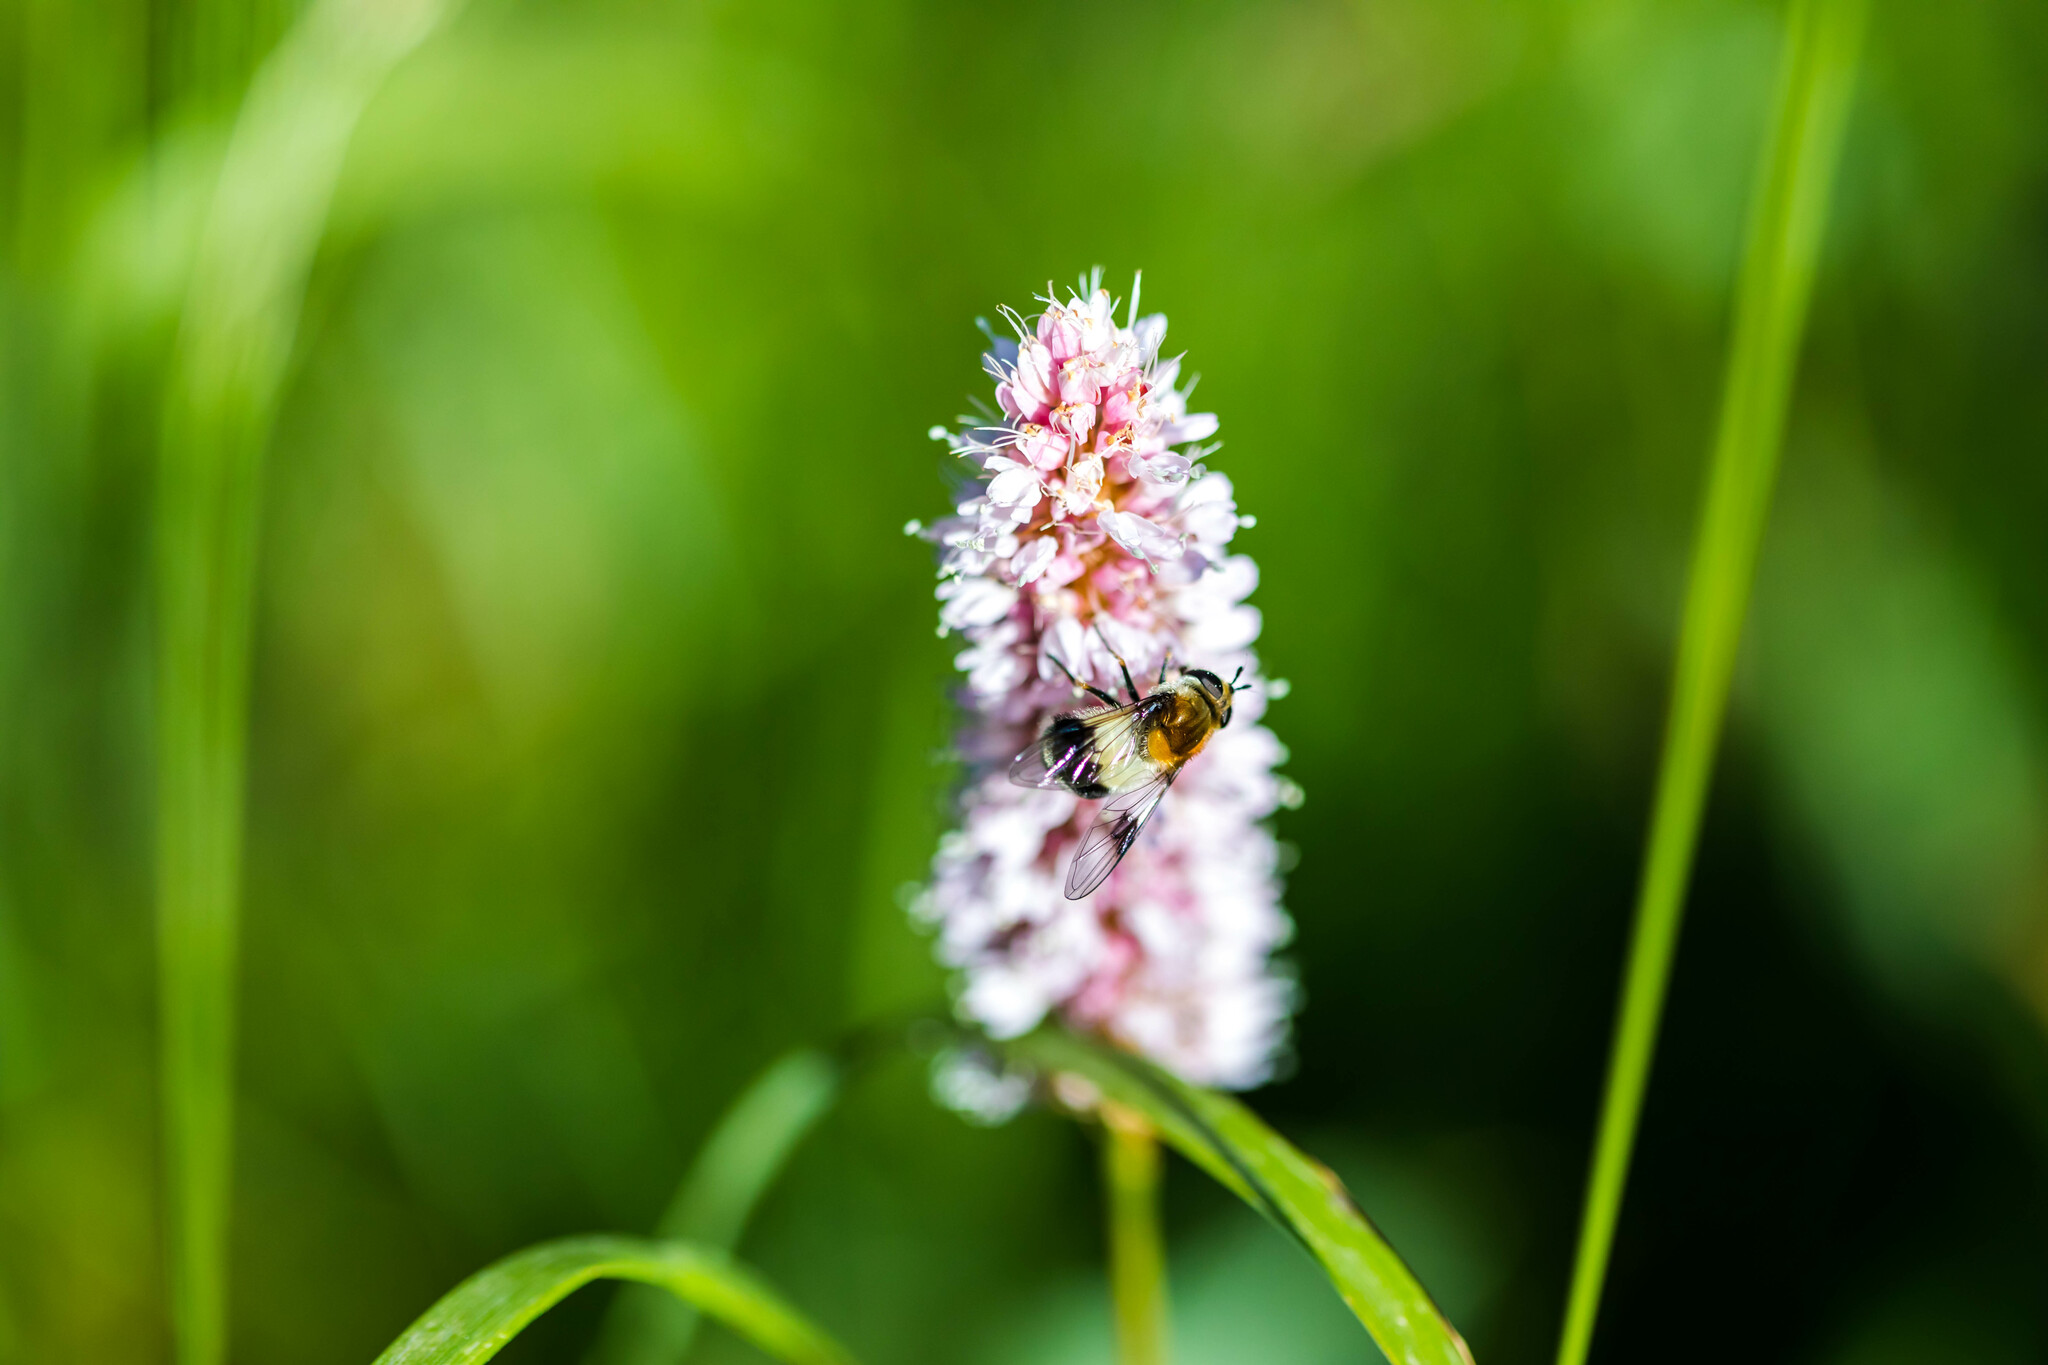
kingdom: Animalia
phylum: Arthropoda
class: Insecta
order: Diptera
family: Syrphidae
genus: Leucozona
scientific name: Leucozona lucorum
